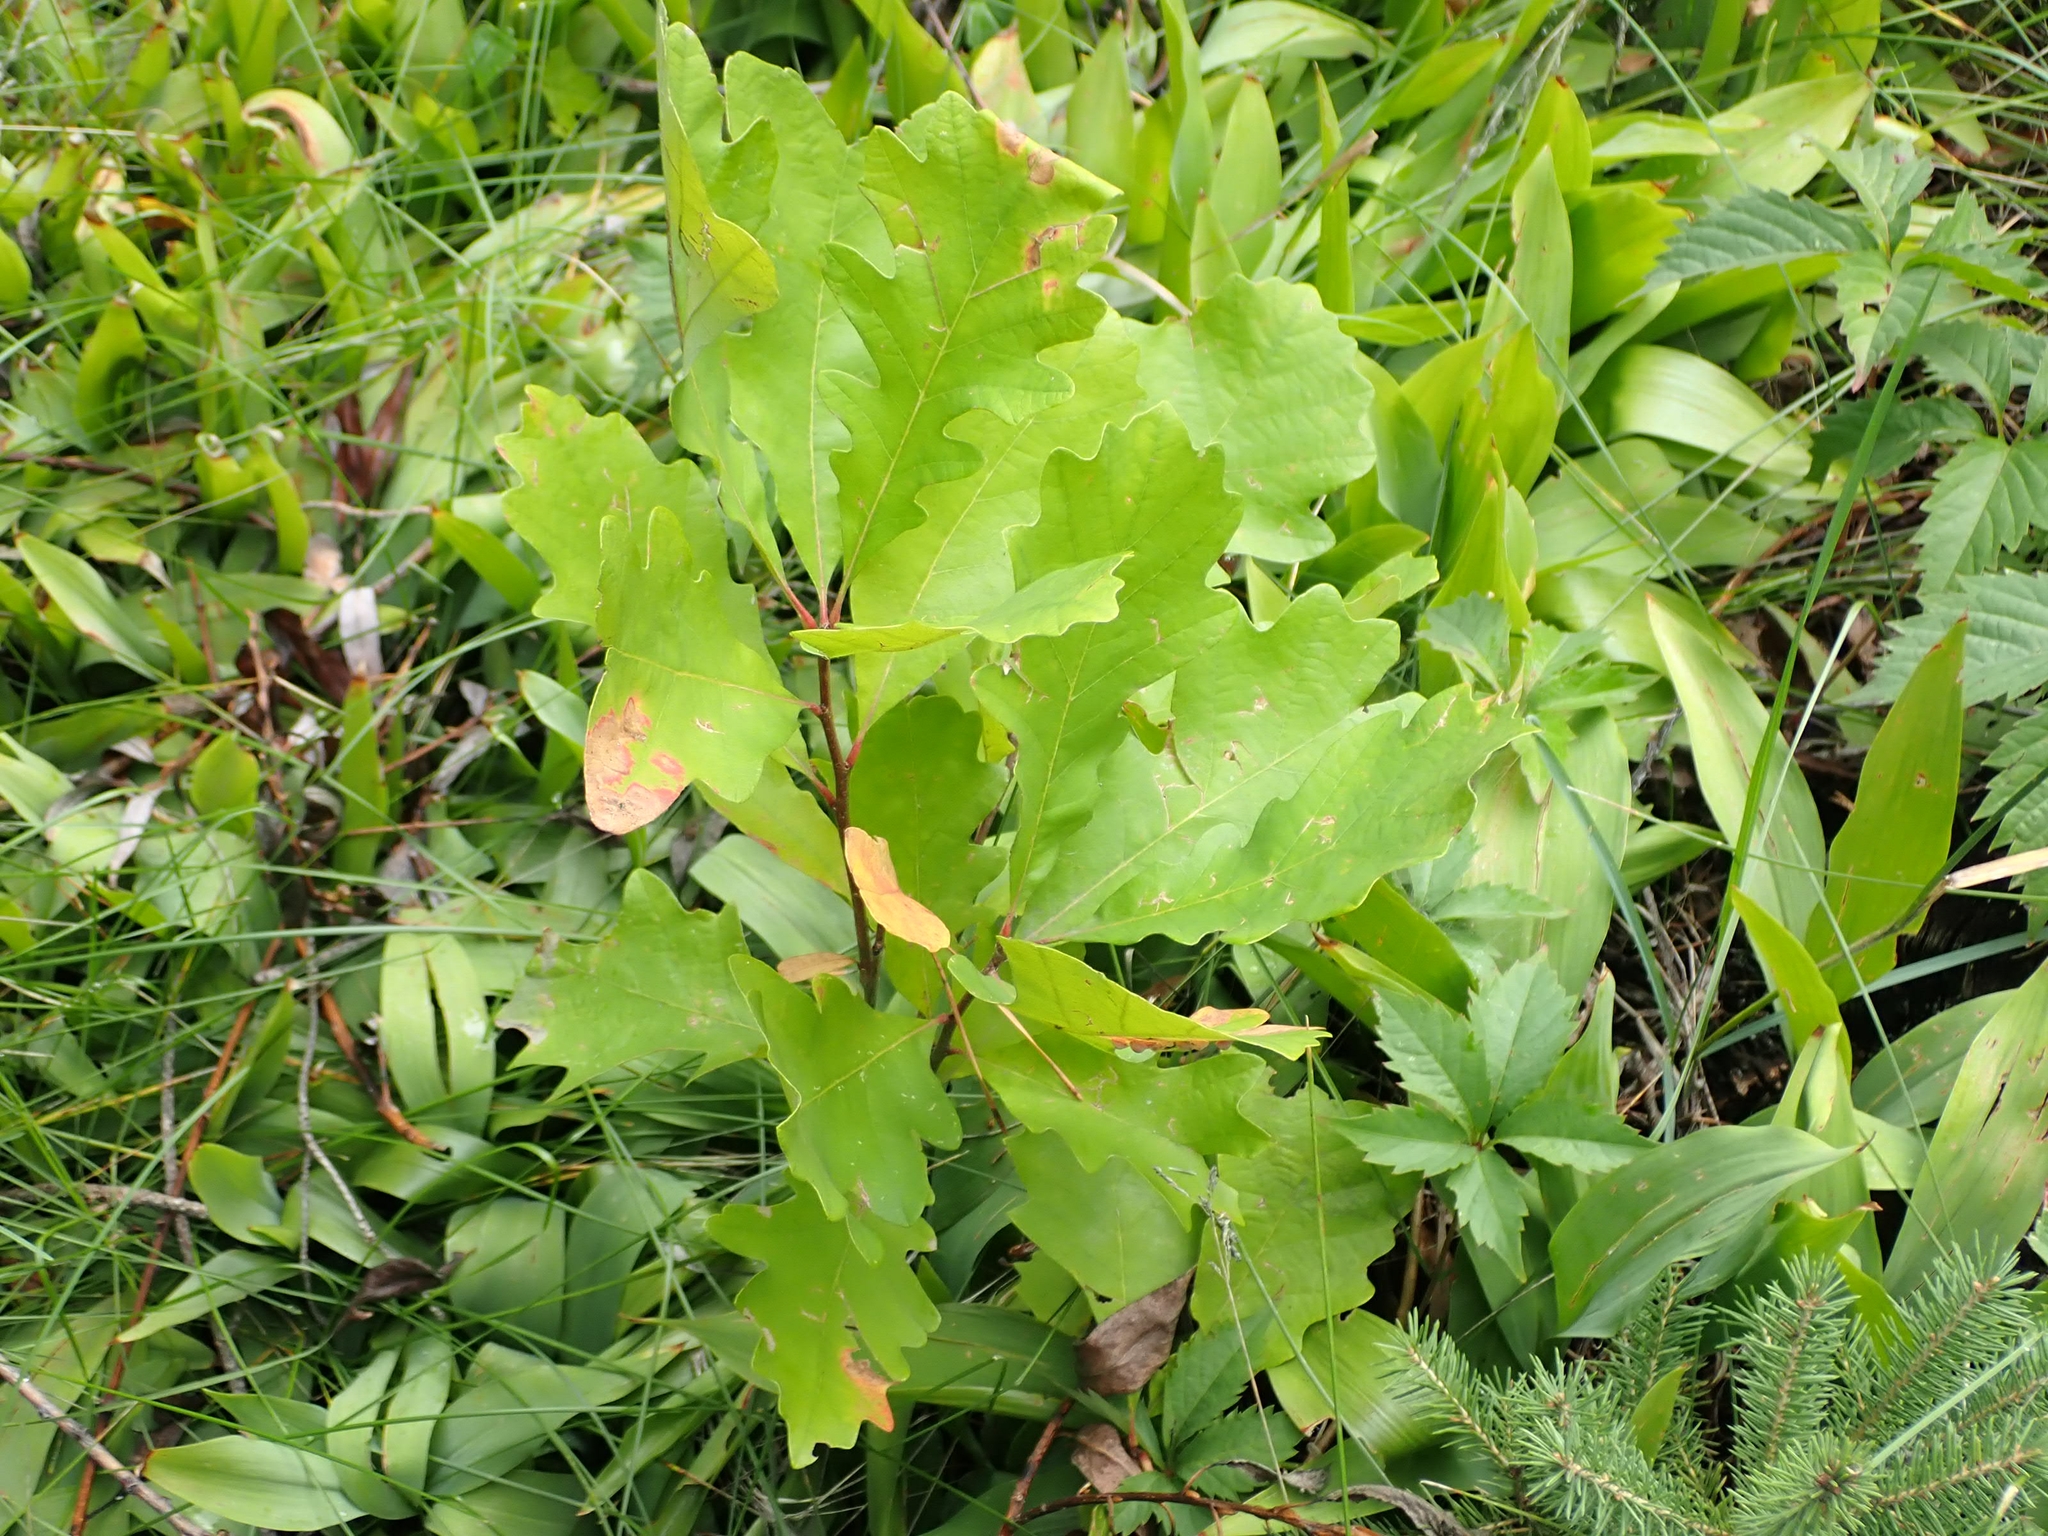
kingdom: Plantae
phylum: Tracheophyta
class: Magnoliopsida
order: Fagales
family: Fagaceae
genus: Quercus
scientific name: Quercus macrocarpa
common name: Bur oak
